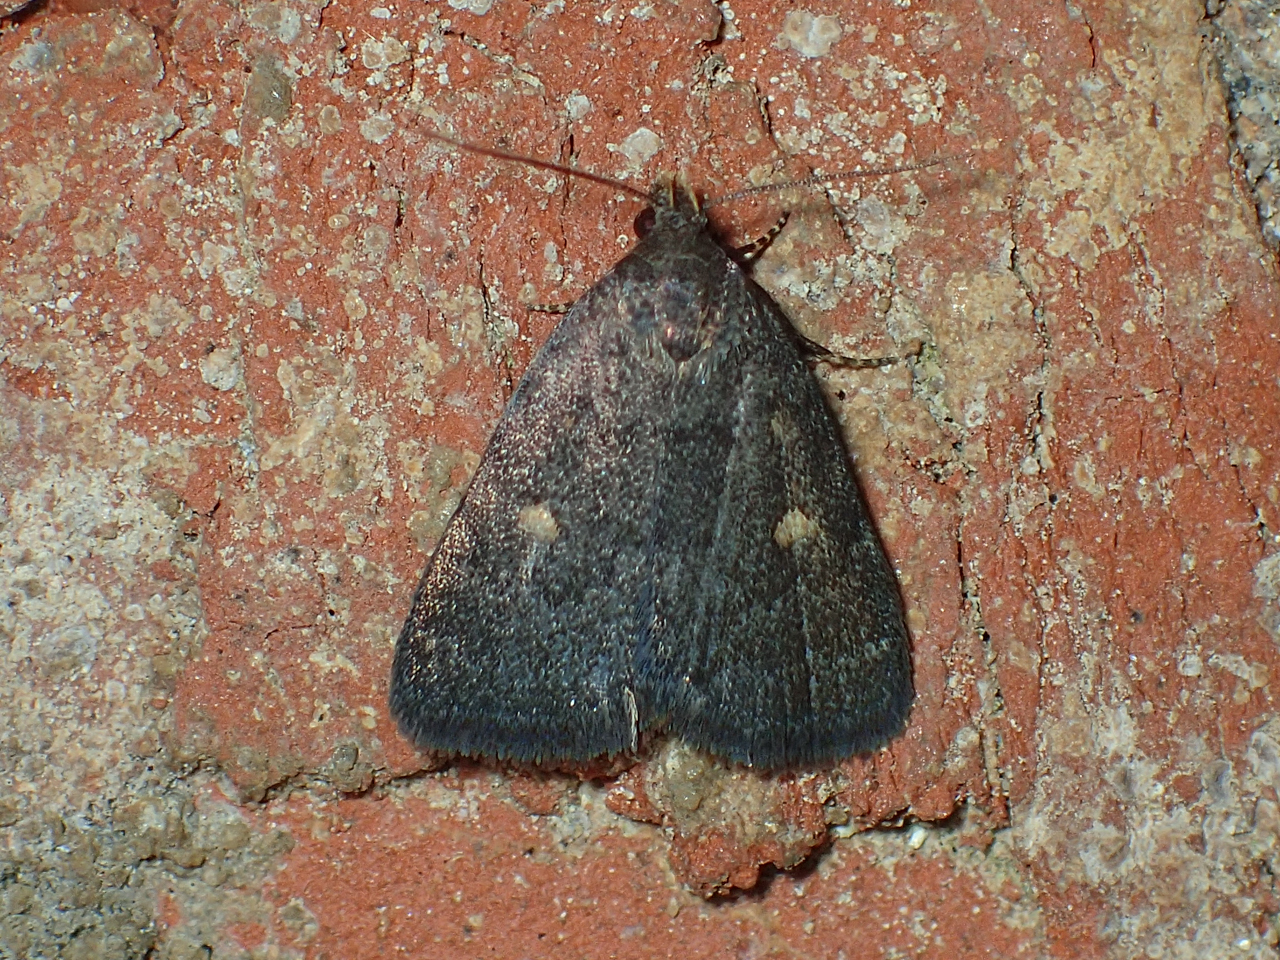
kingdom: Animalia
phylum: Arthropoda
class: Insecta
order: Lepidoptera
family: Erebidae
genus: Idia
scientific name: Idia diminuendis
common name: Orange-spotted idia moth
